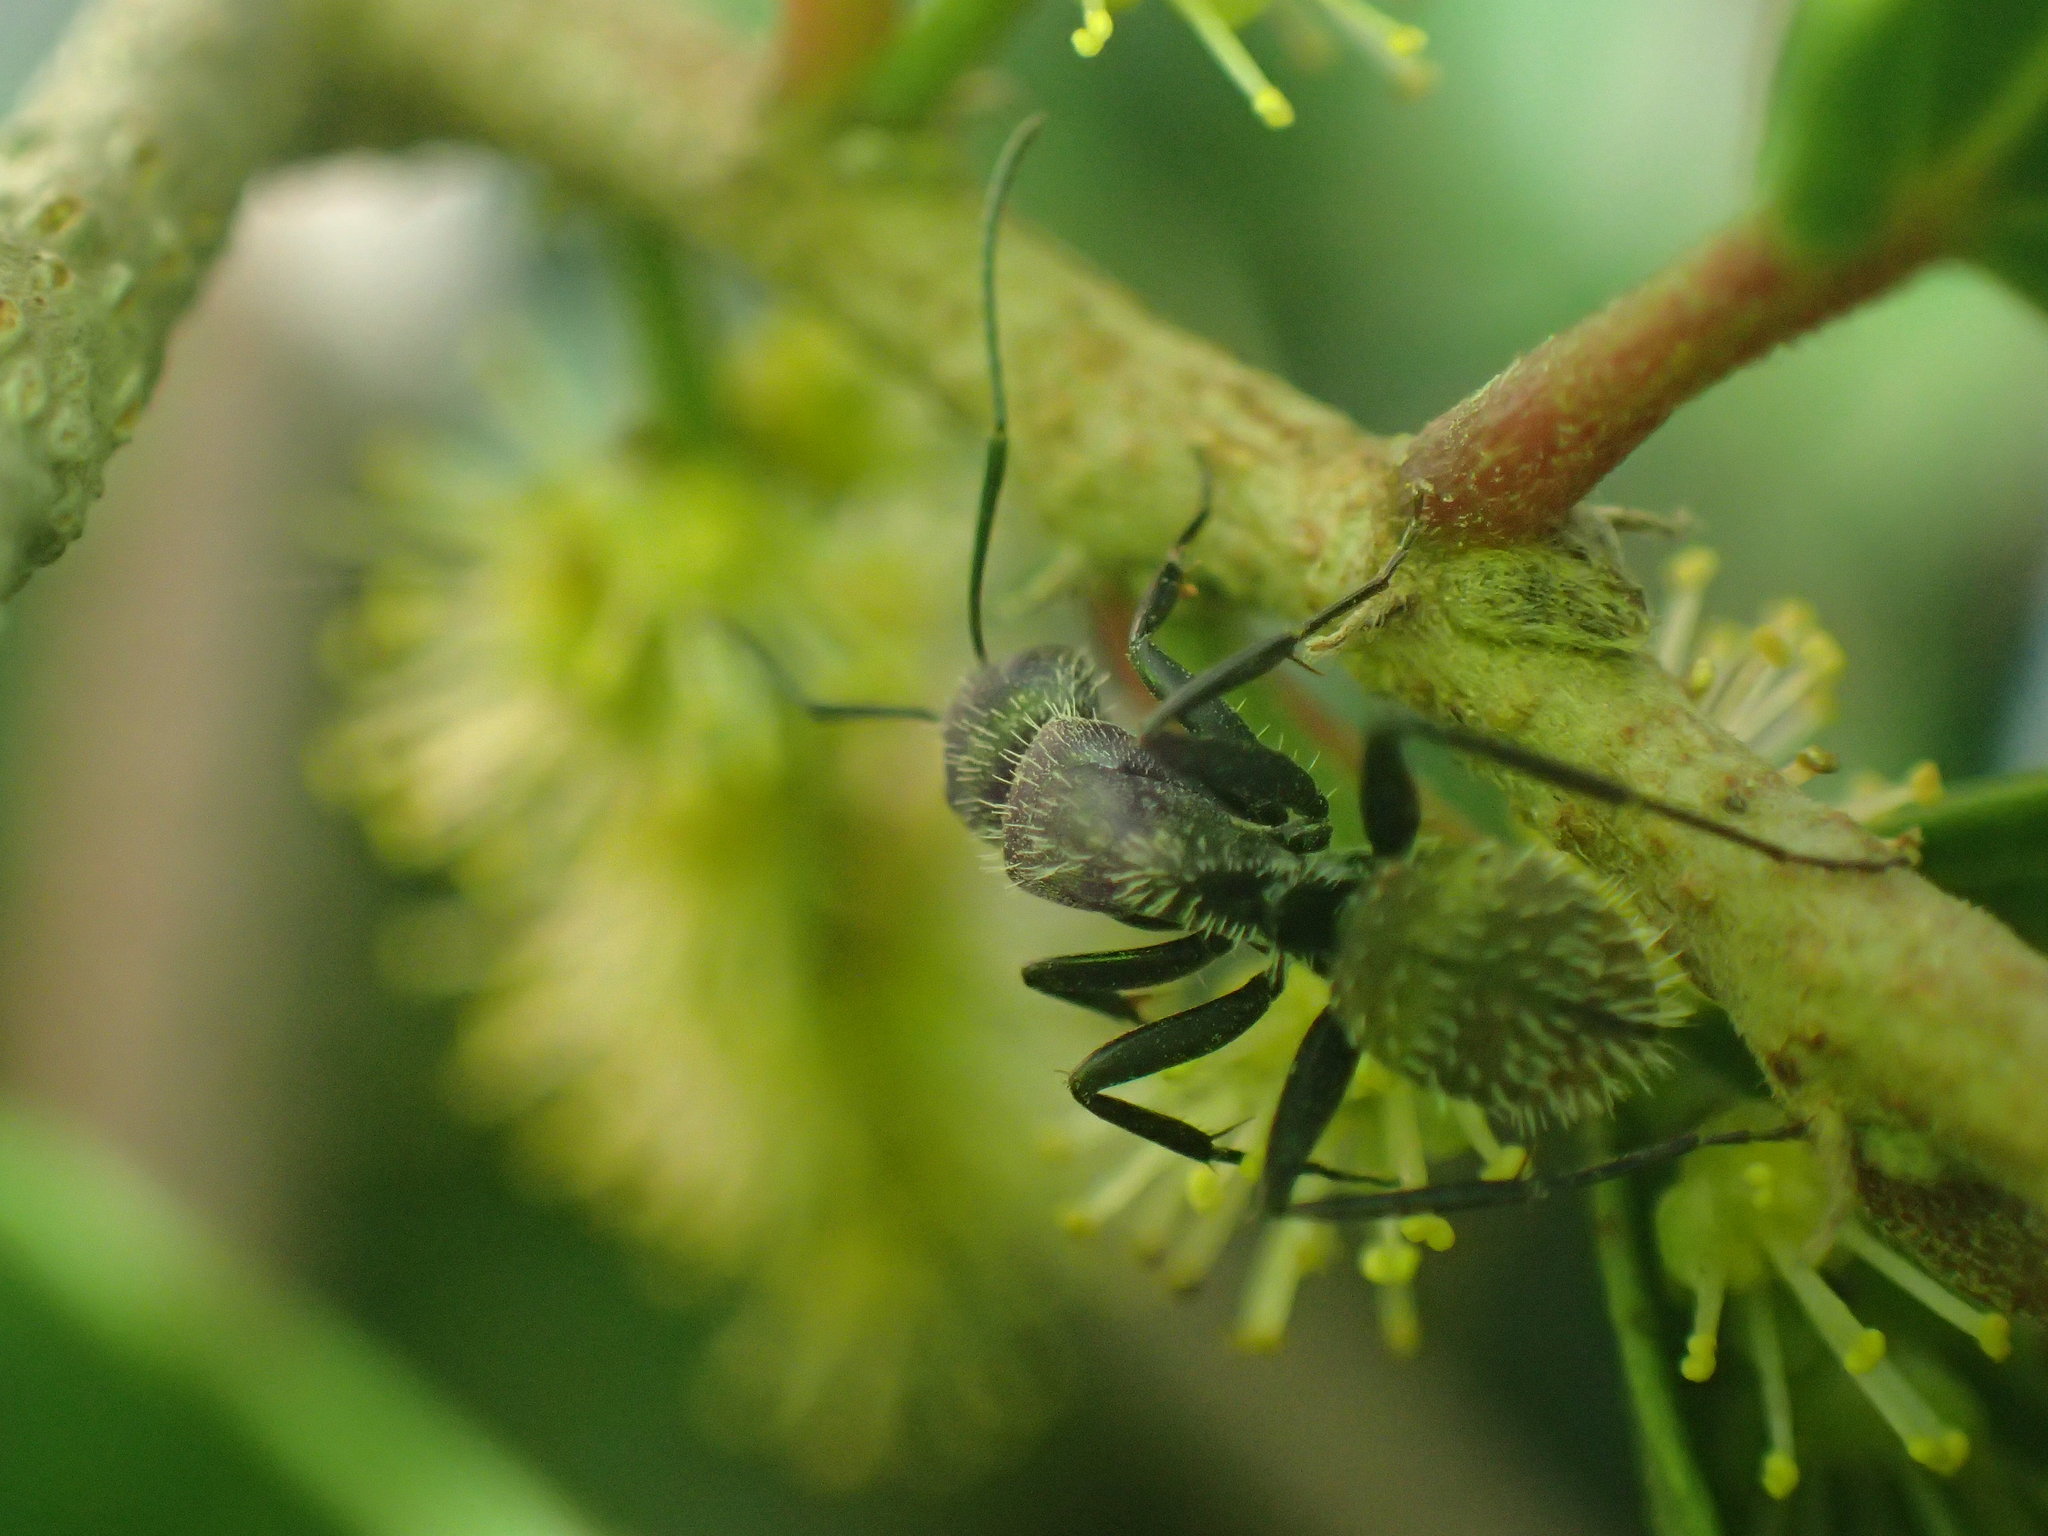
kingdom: Animalia
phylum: Arthropoda
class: Insecta
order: Hymenoptera
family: Formicidae
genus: Camponotus
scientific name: Camponotus postoculatus
